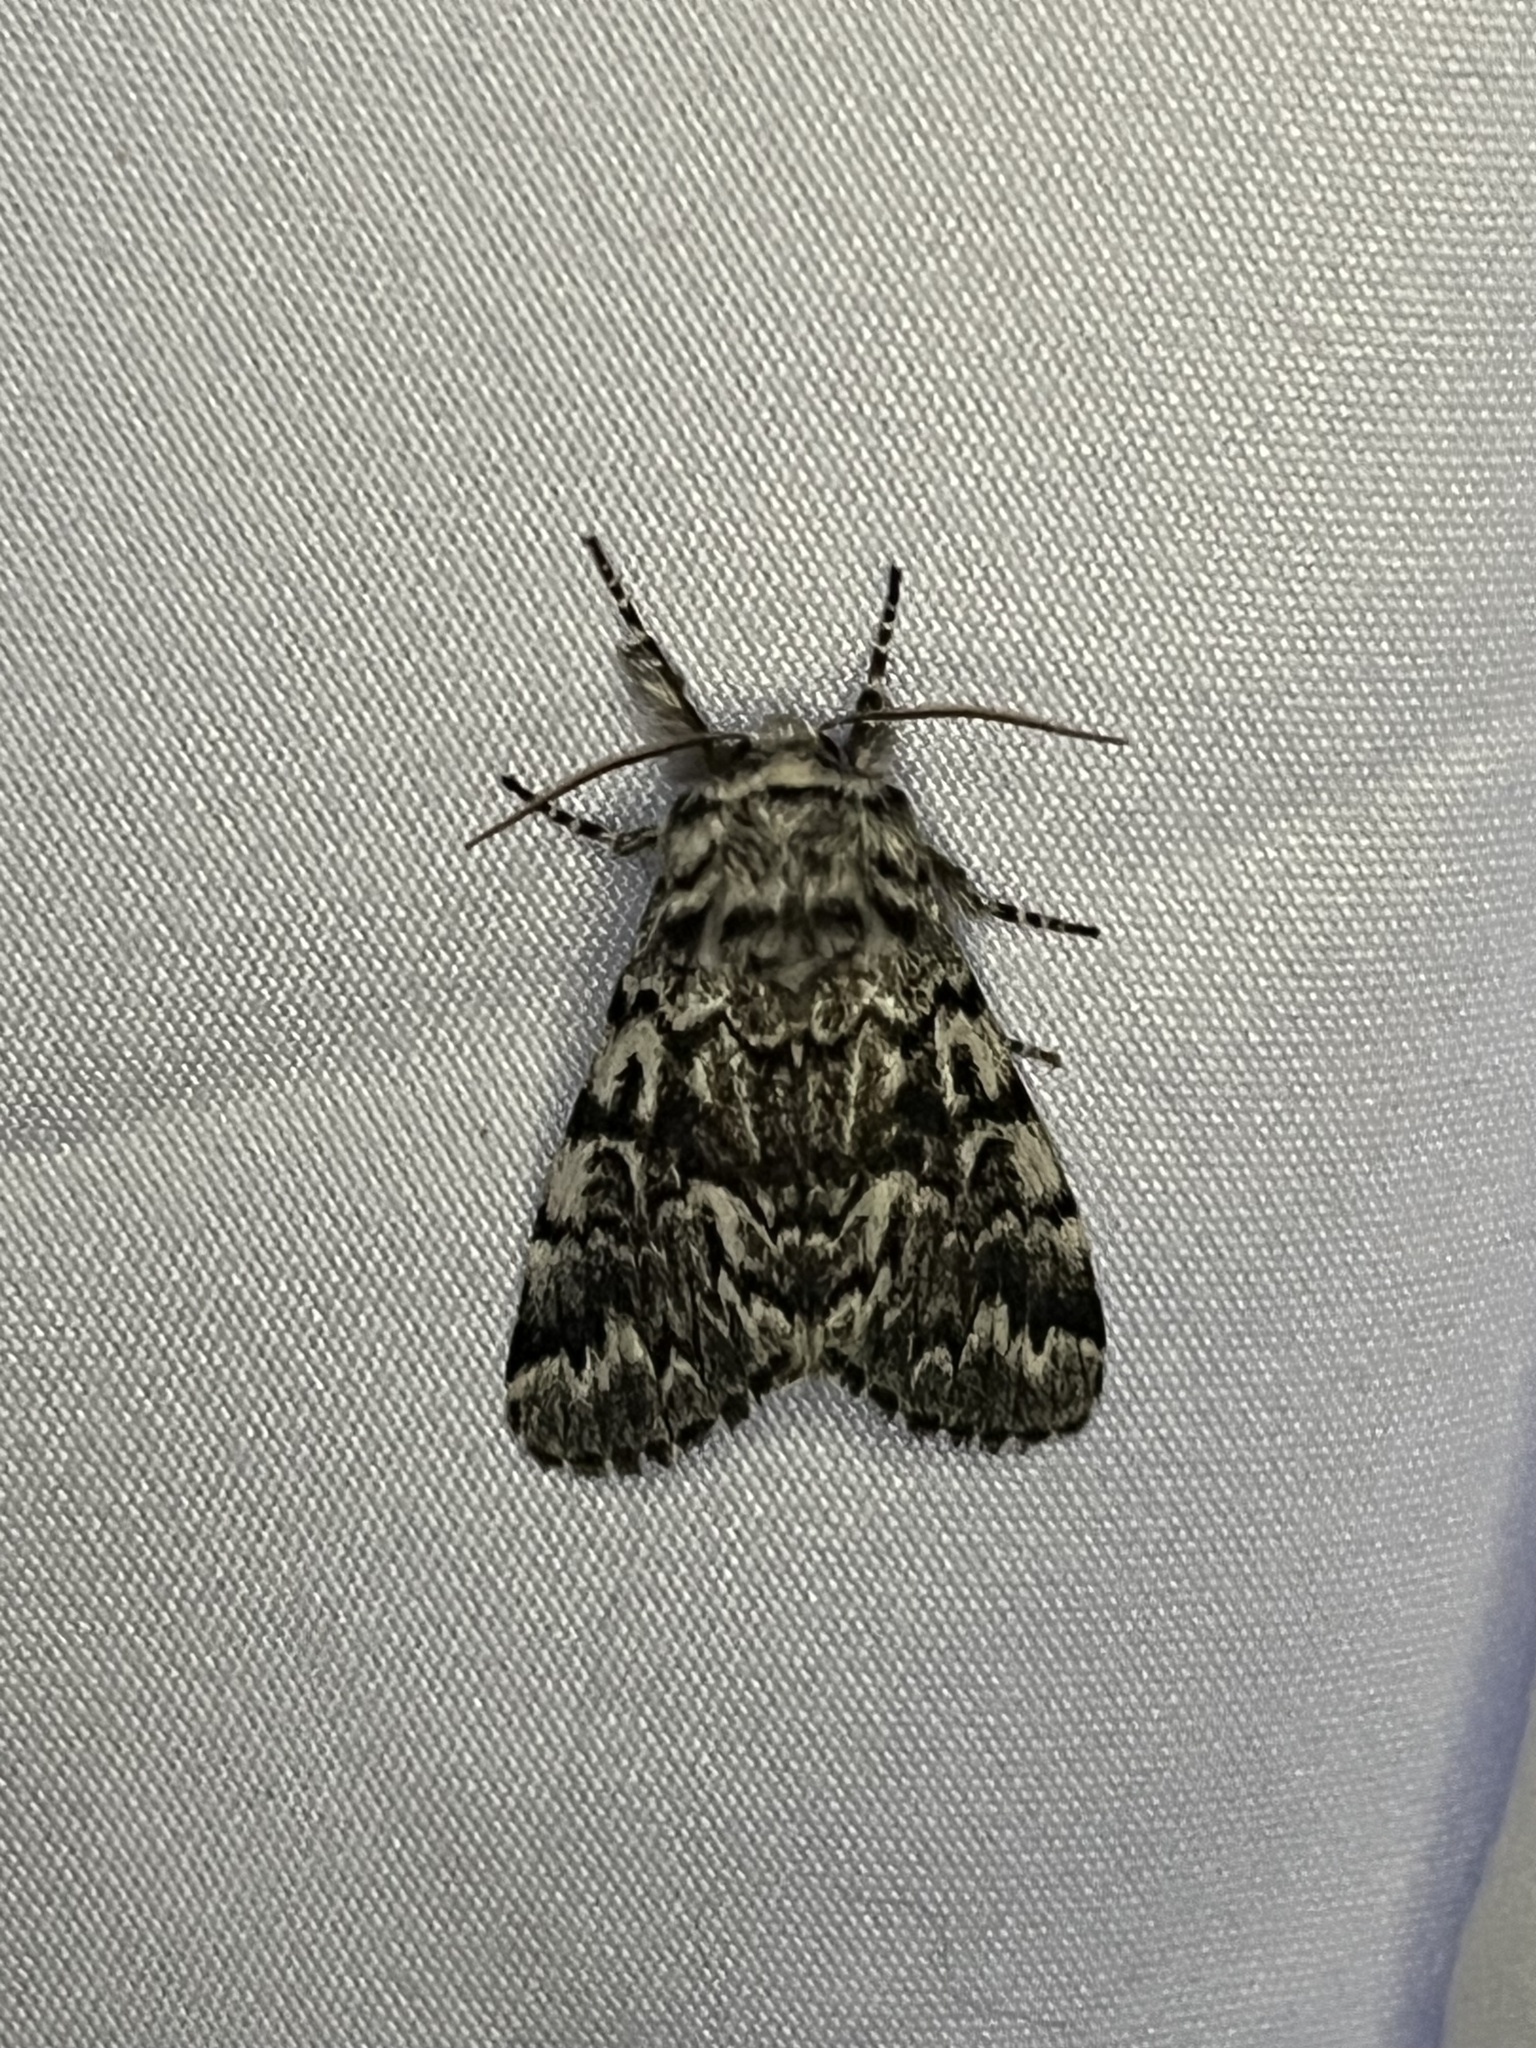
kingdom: Animalia
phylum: Arthropoda
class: Insecta
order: Lepidoptera
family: Noctuidae
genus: Panthea
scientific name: Panthea acronyctoides
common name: Black zigzag moth
